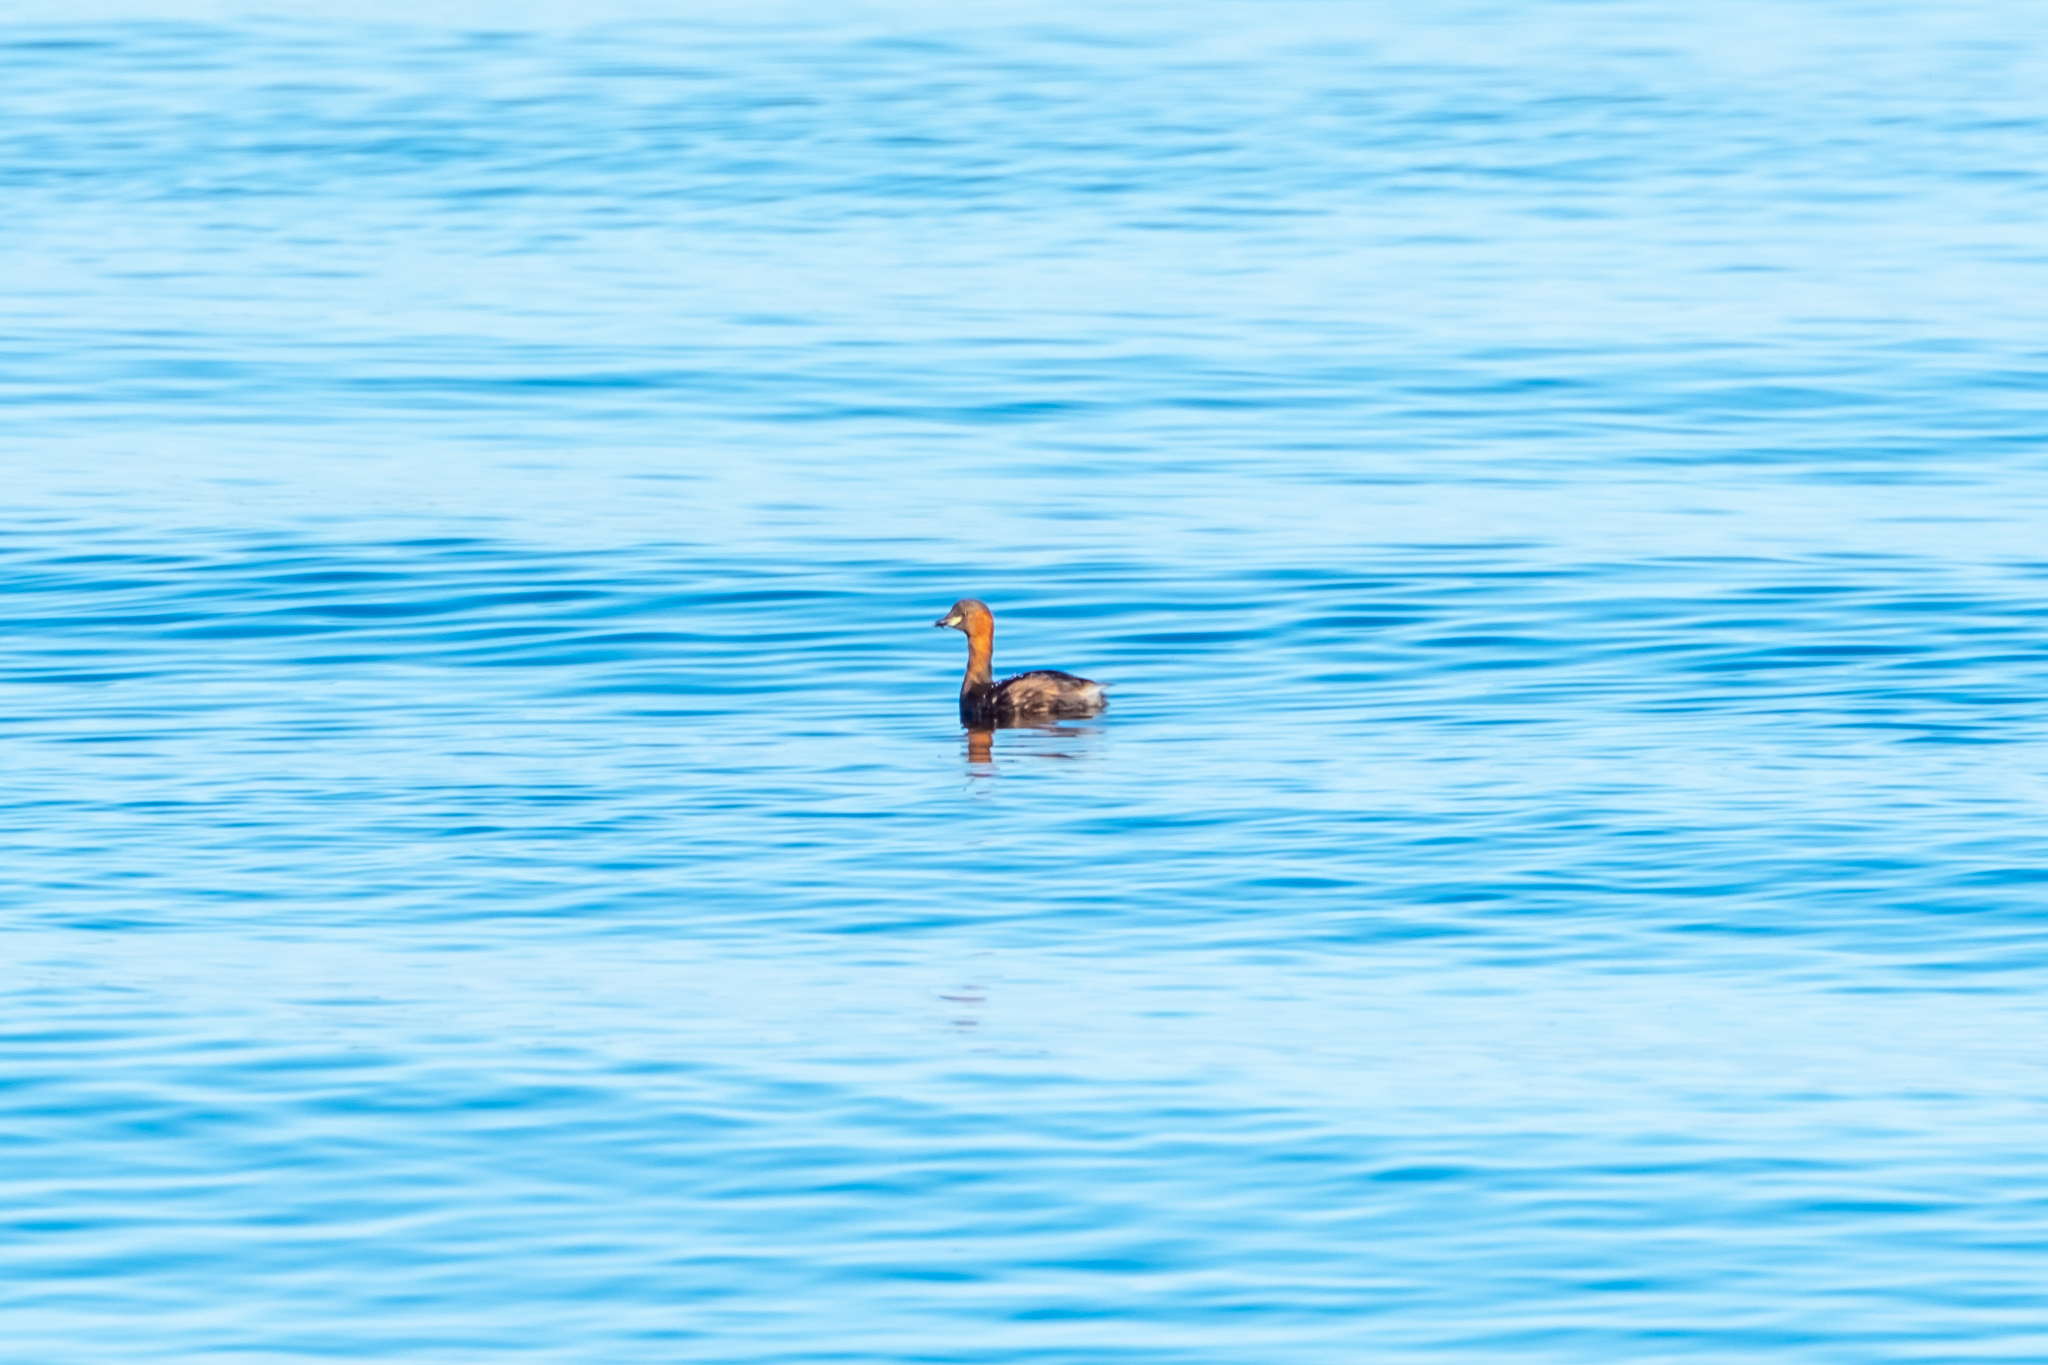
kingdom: Animalia
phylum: Chordata
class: Aves
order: Podicipediformes
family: Podicipedidae
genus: Tachybaptus
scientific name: Tachybaptus ruficollis
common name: Little grebe
